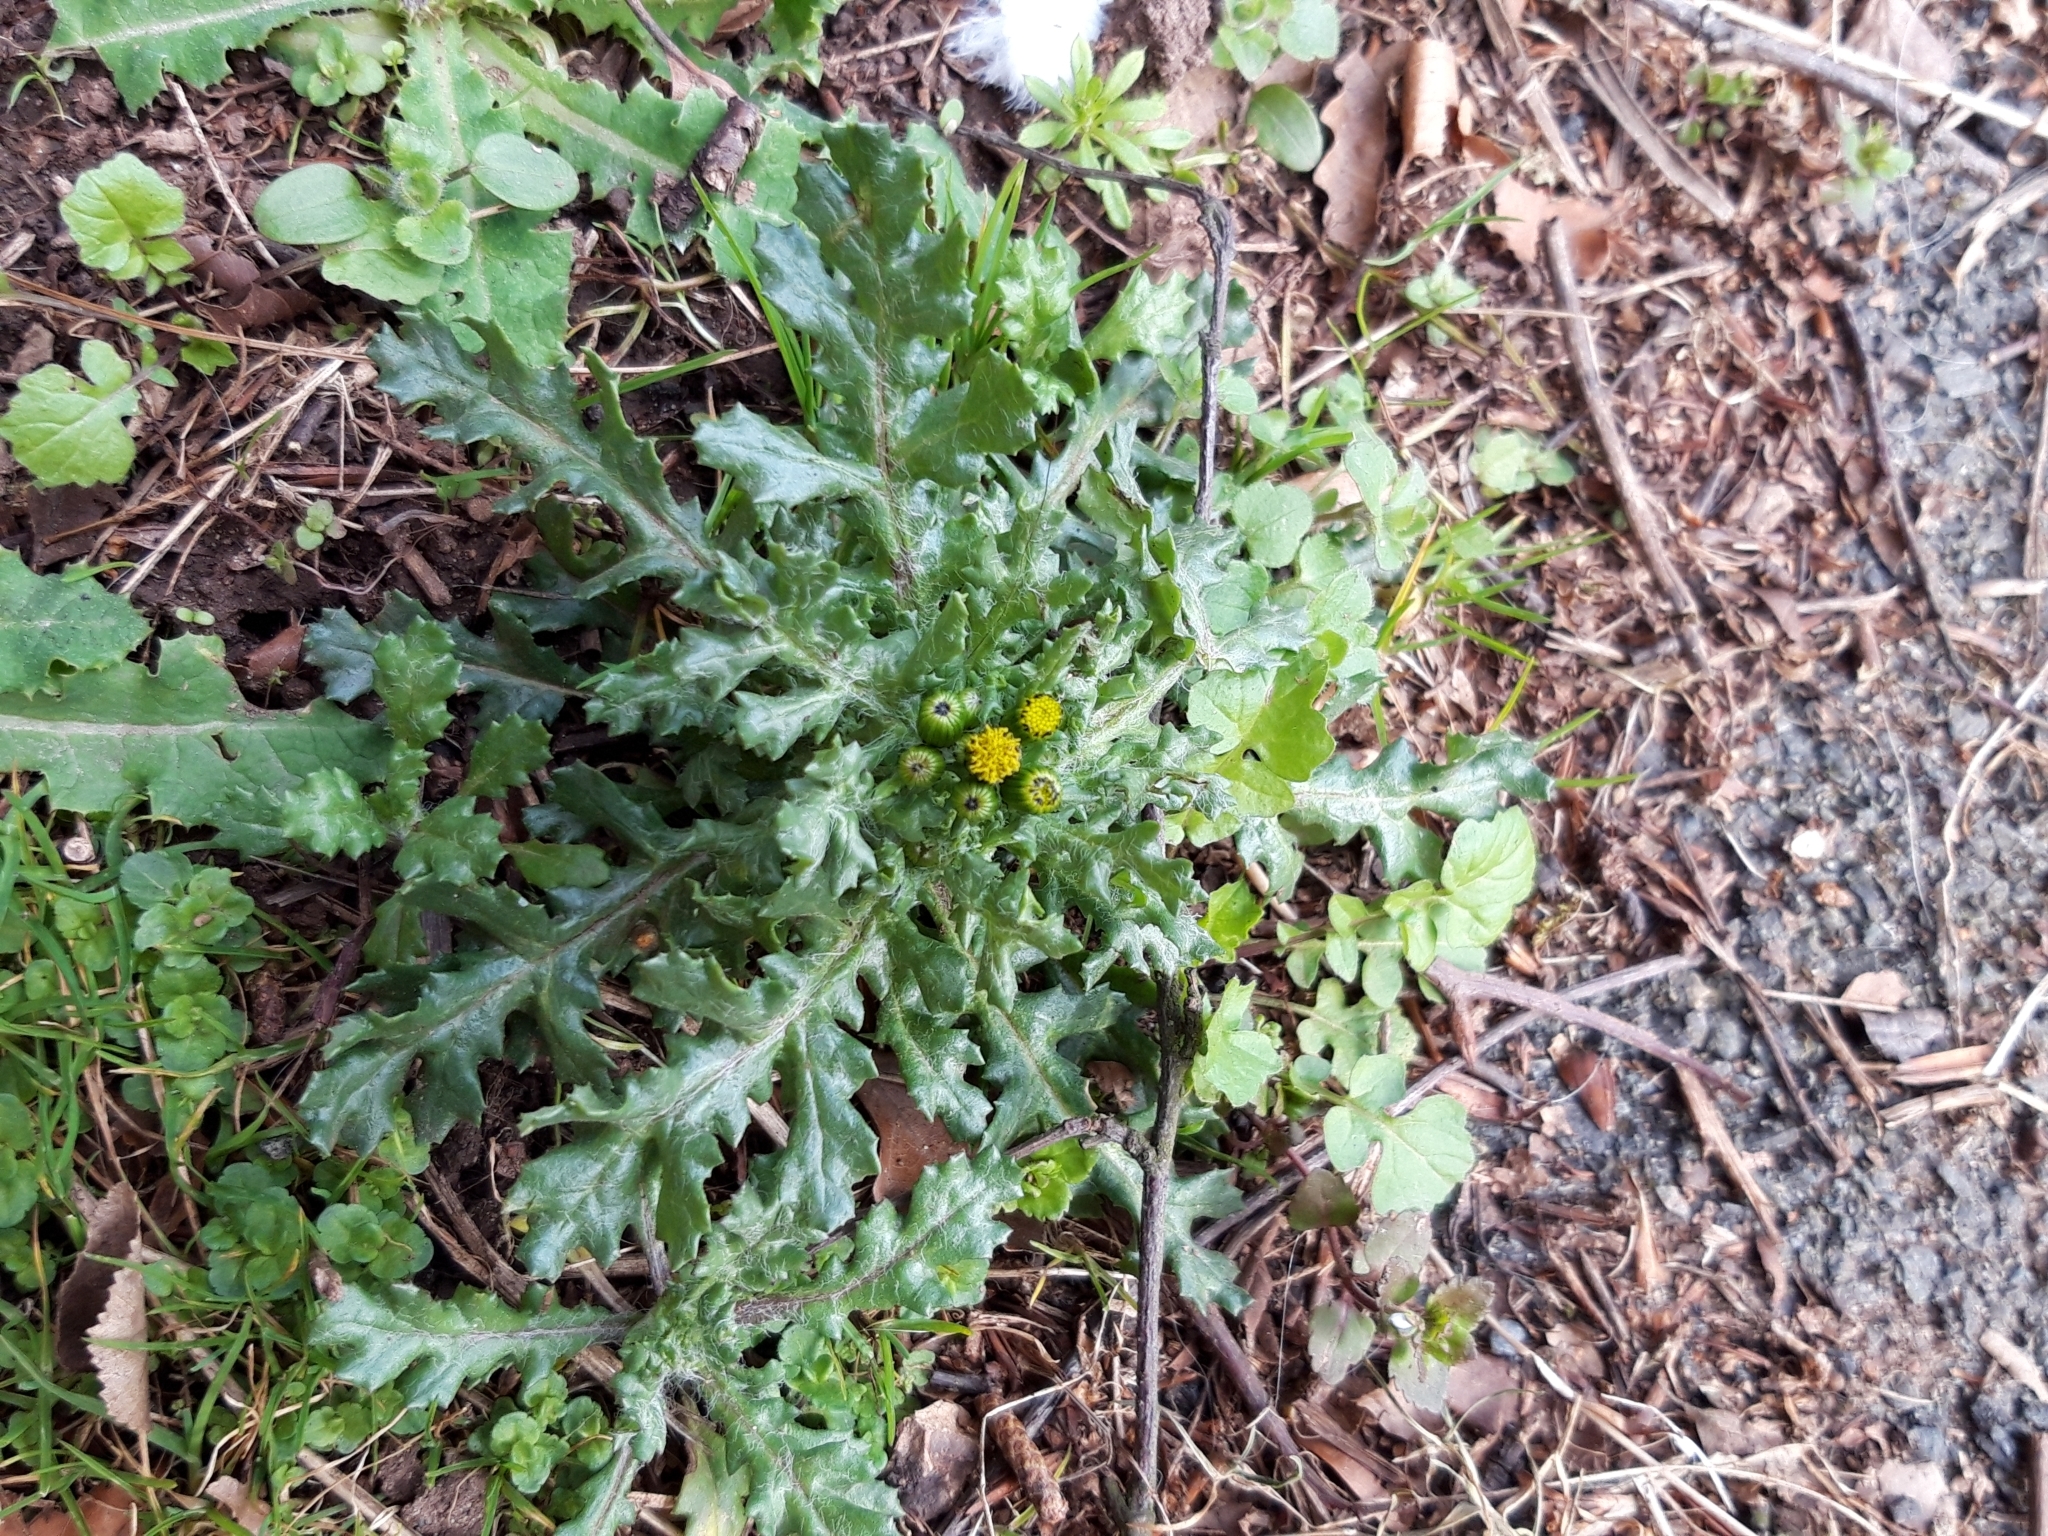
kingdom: Plantae
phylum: Tracheophyta
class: Magnoliopsida
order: Asterales
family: Asteraceae
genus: Senecio
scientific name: Senecio vulgaris
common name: Old-man-in-the-spring
